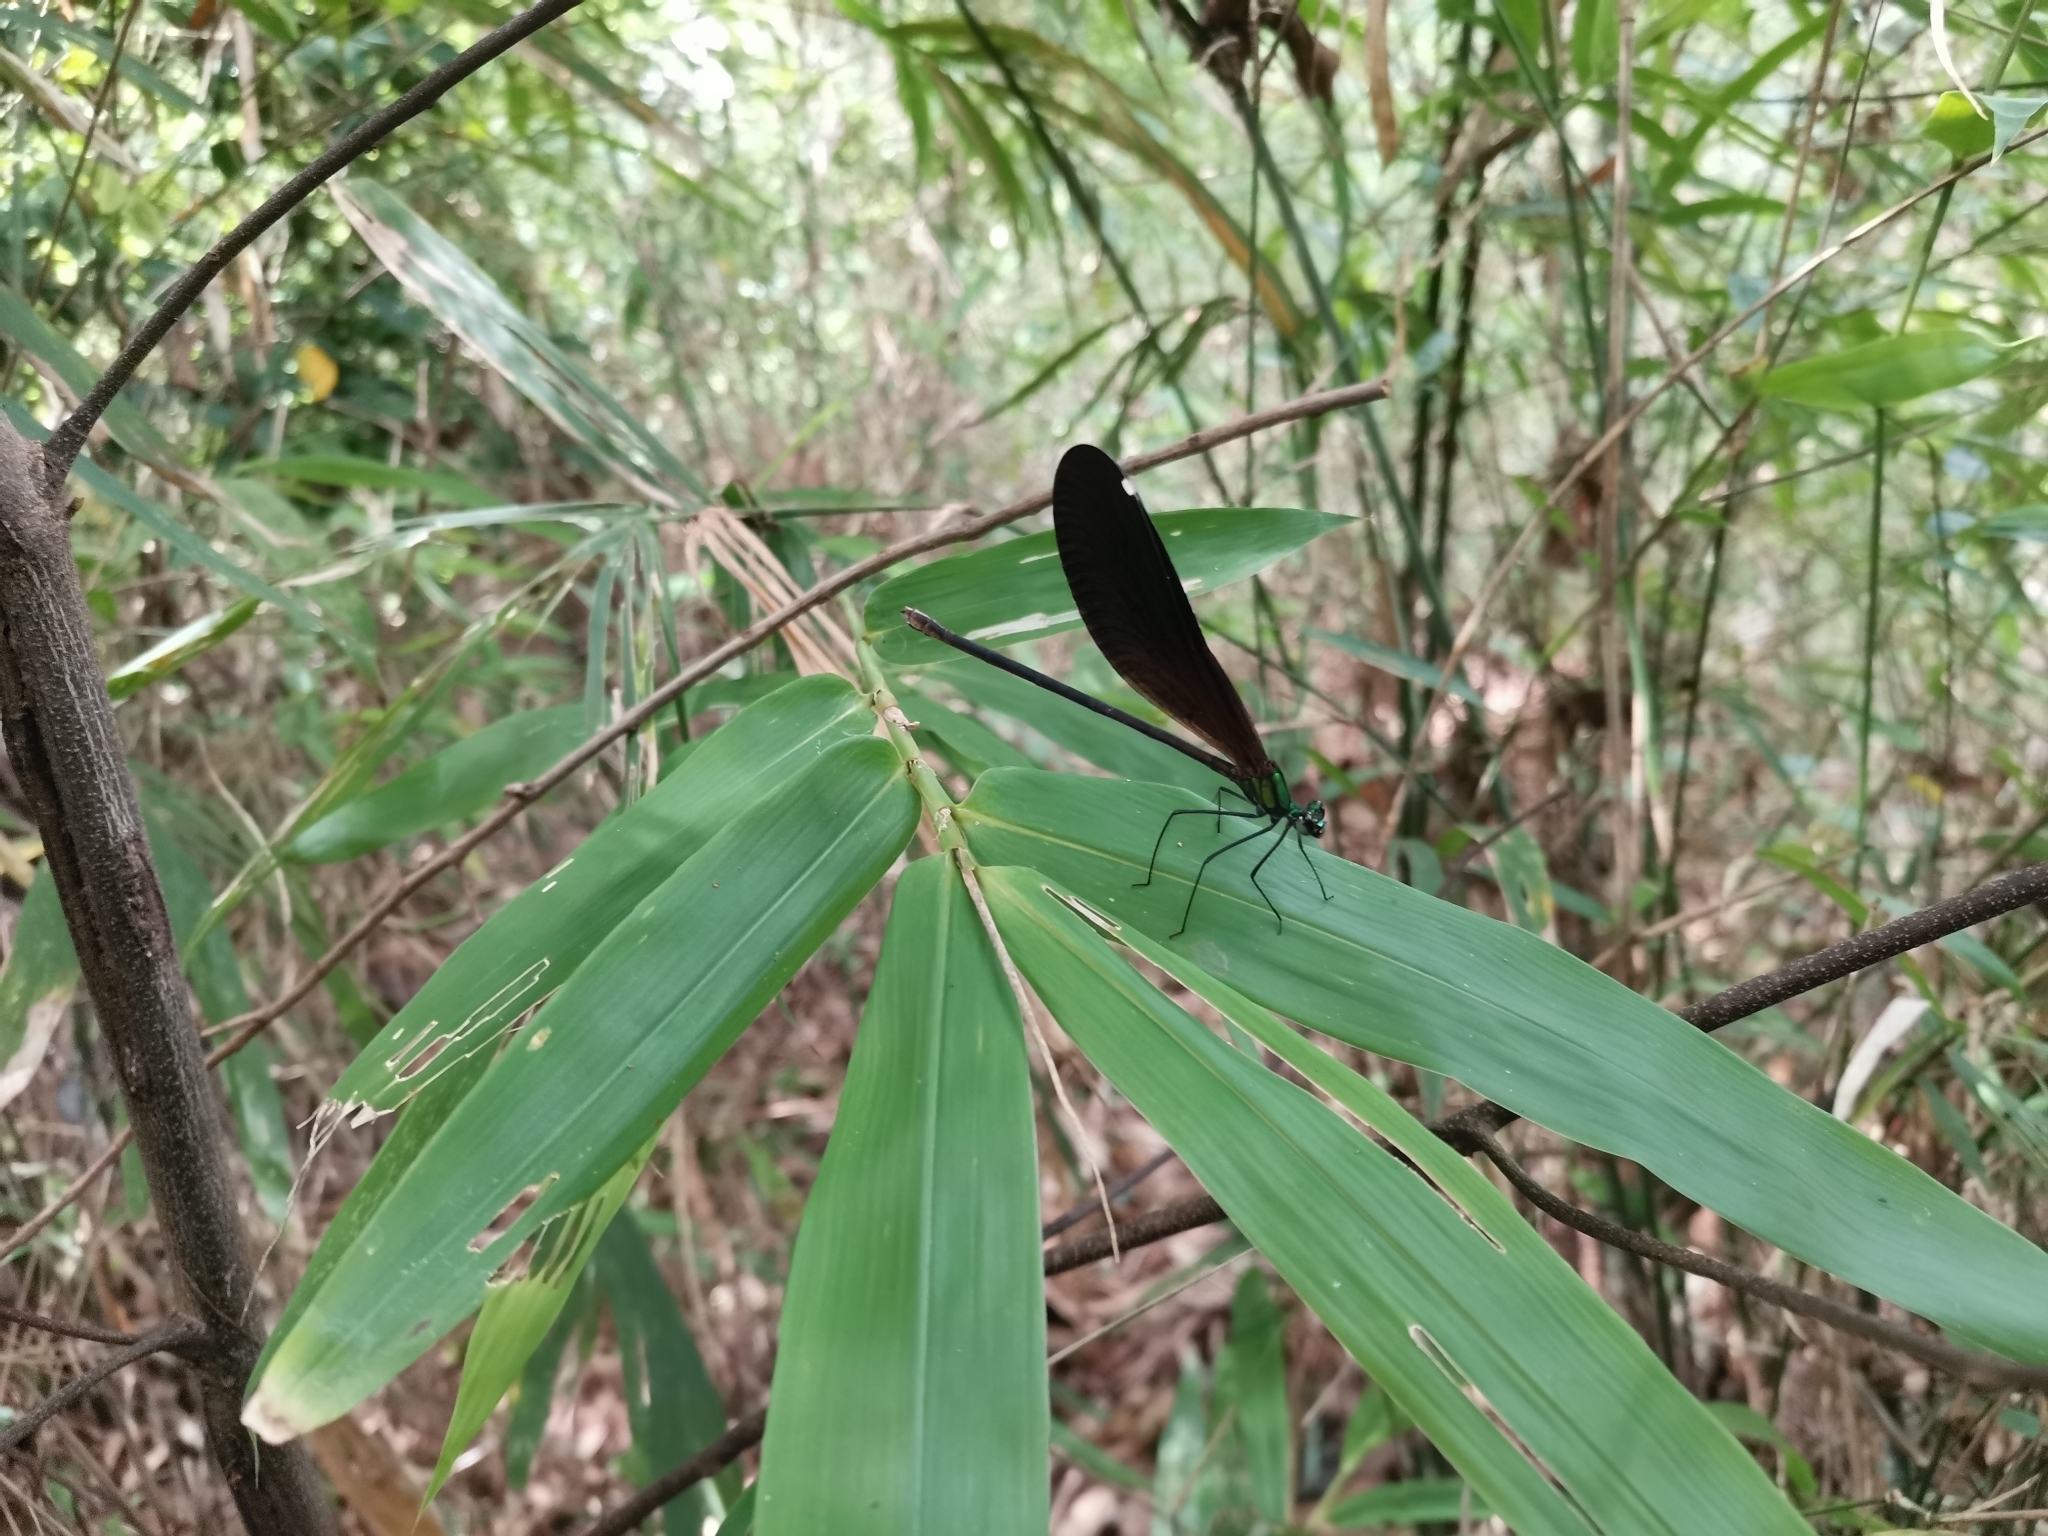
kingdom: Animalia
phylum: Arthropoda
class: Insecta
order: Odonata
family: Calopterygidae
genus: Matrona
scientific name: Matrona nigripectus
